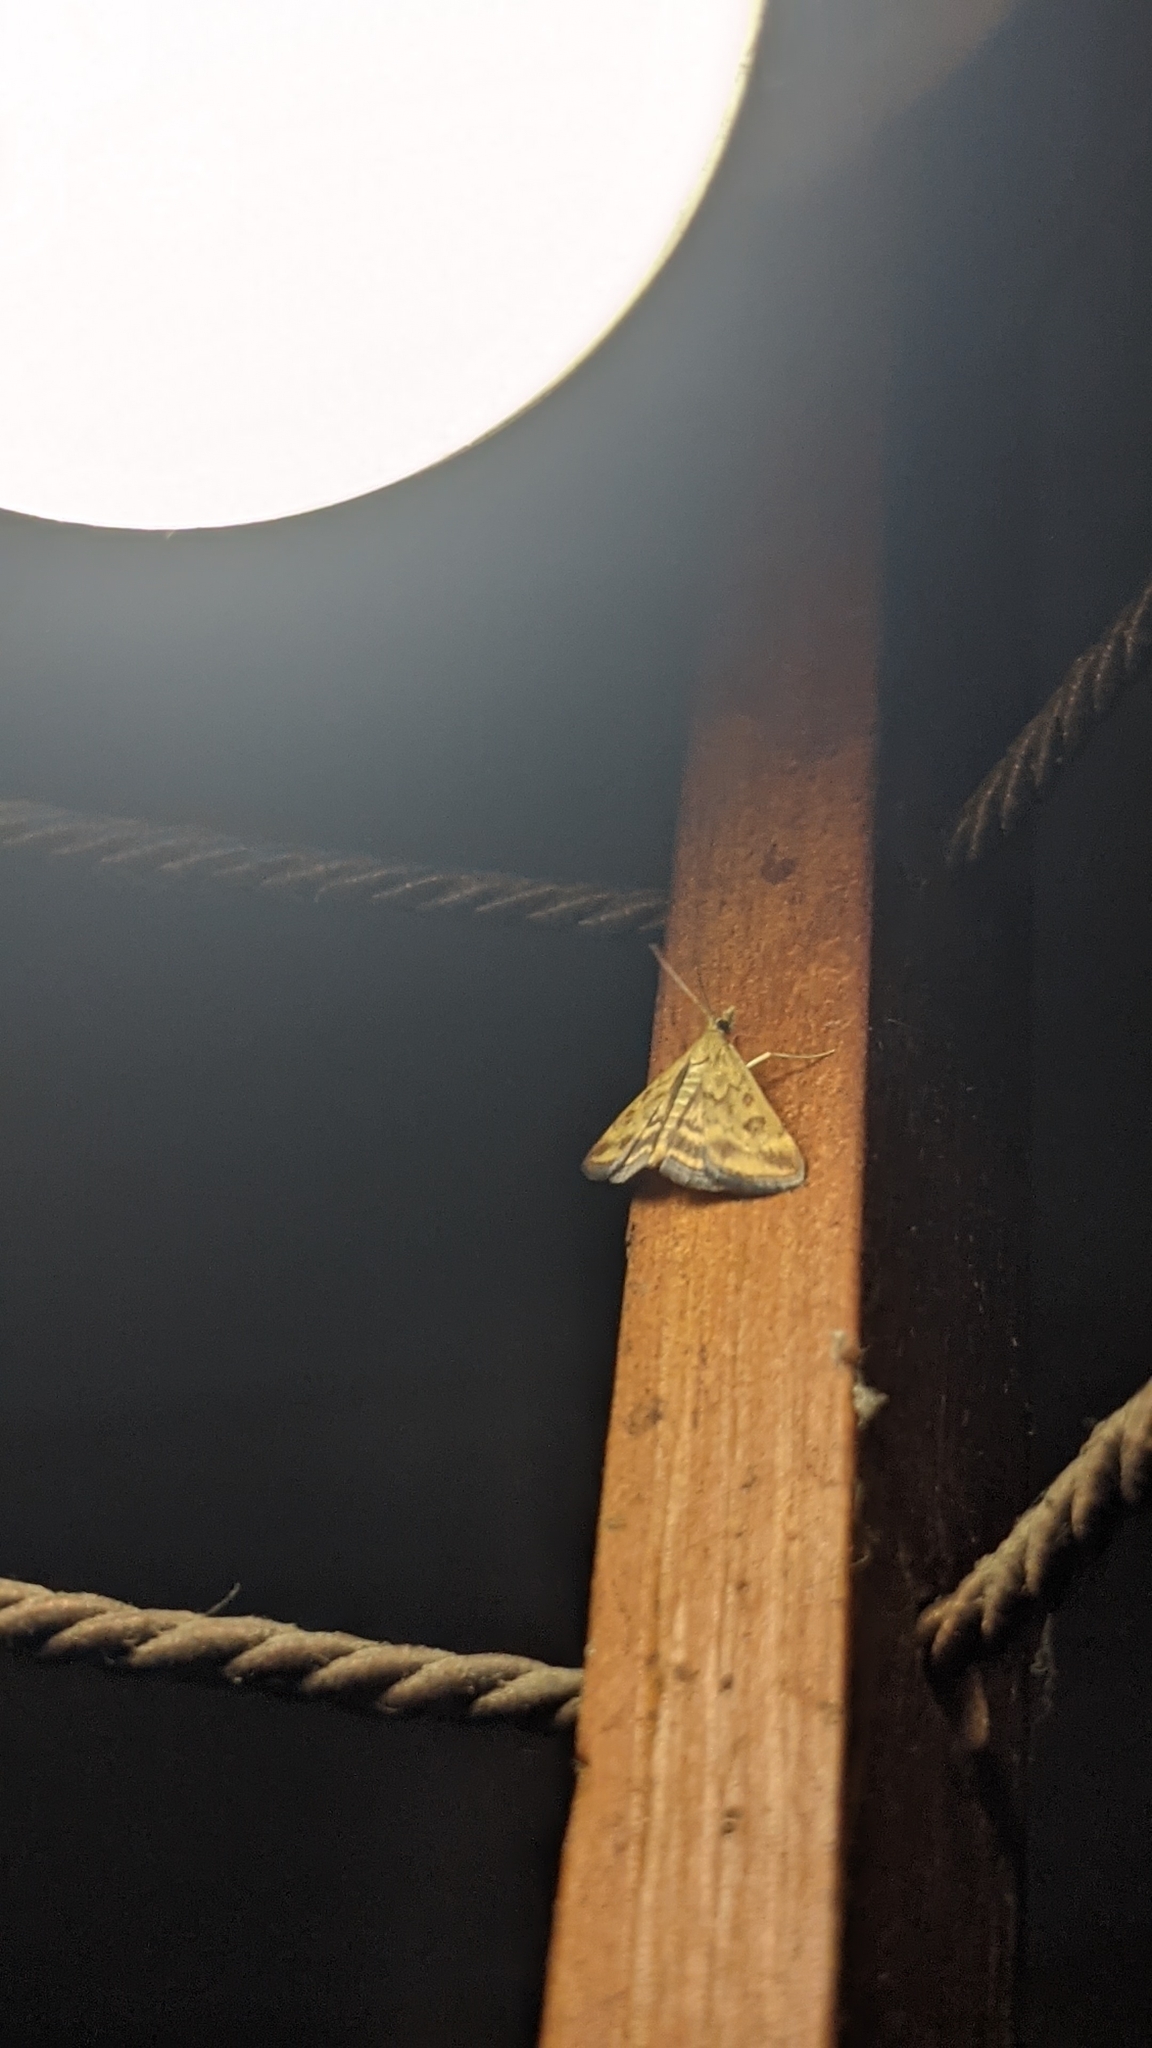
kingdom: Animalia
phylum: Arthropoda
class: Insecta
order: Lepidoptera
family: Crambidae
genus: Pyrausta
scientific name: Pyrausta despicata
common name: Straw-barred pearl
